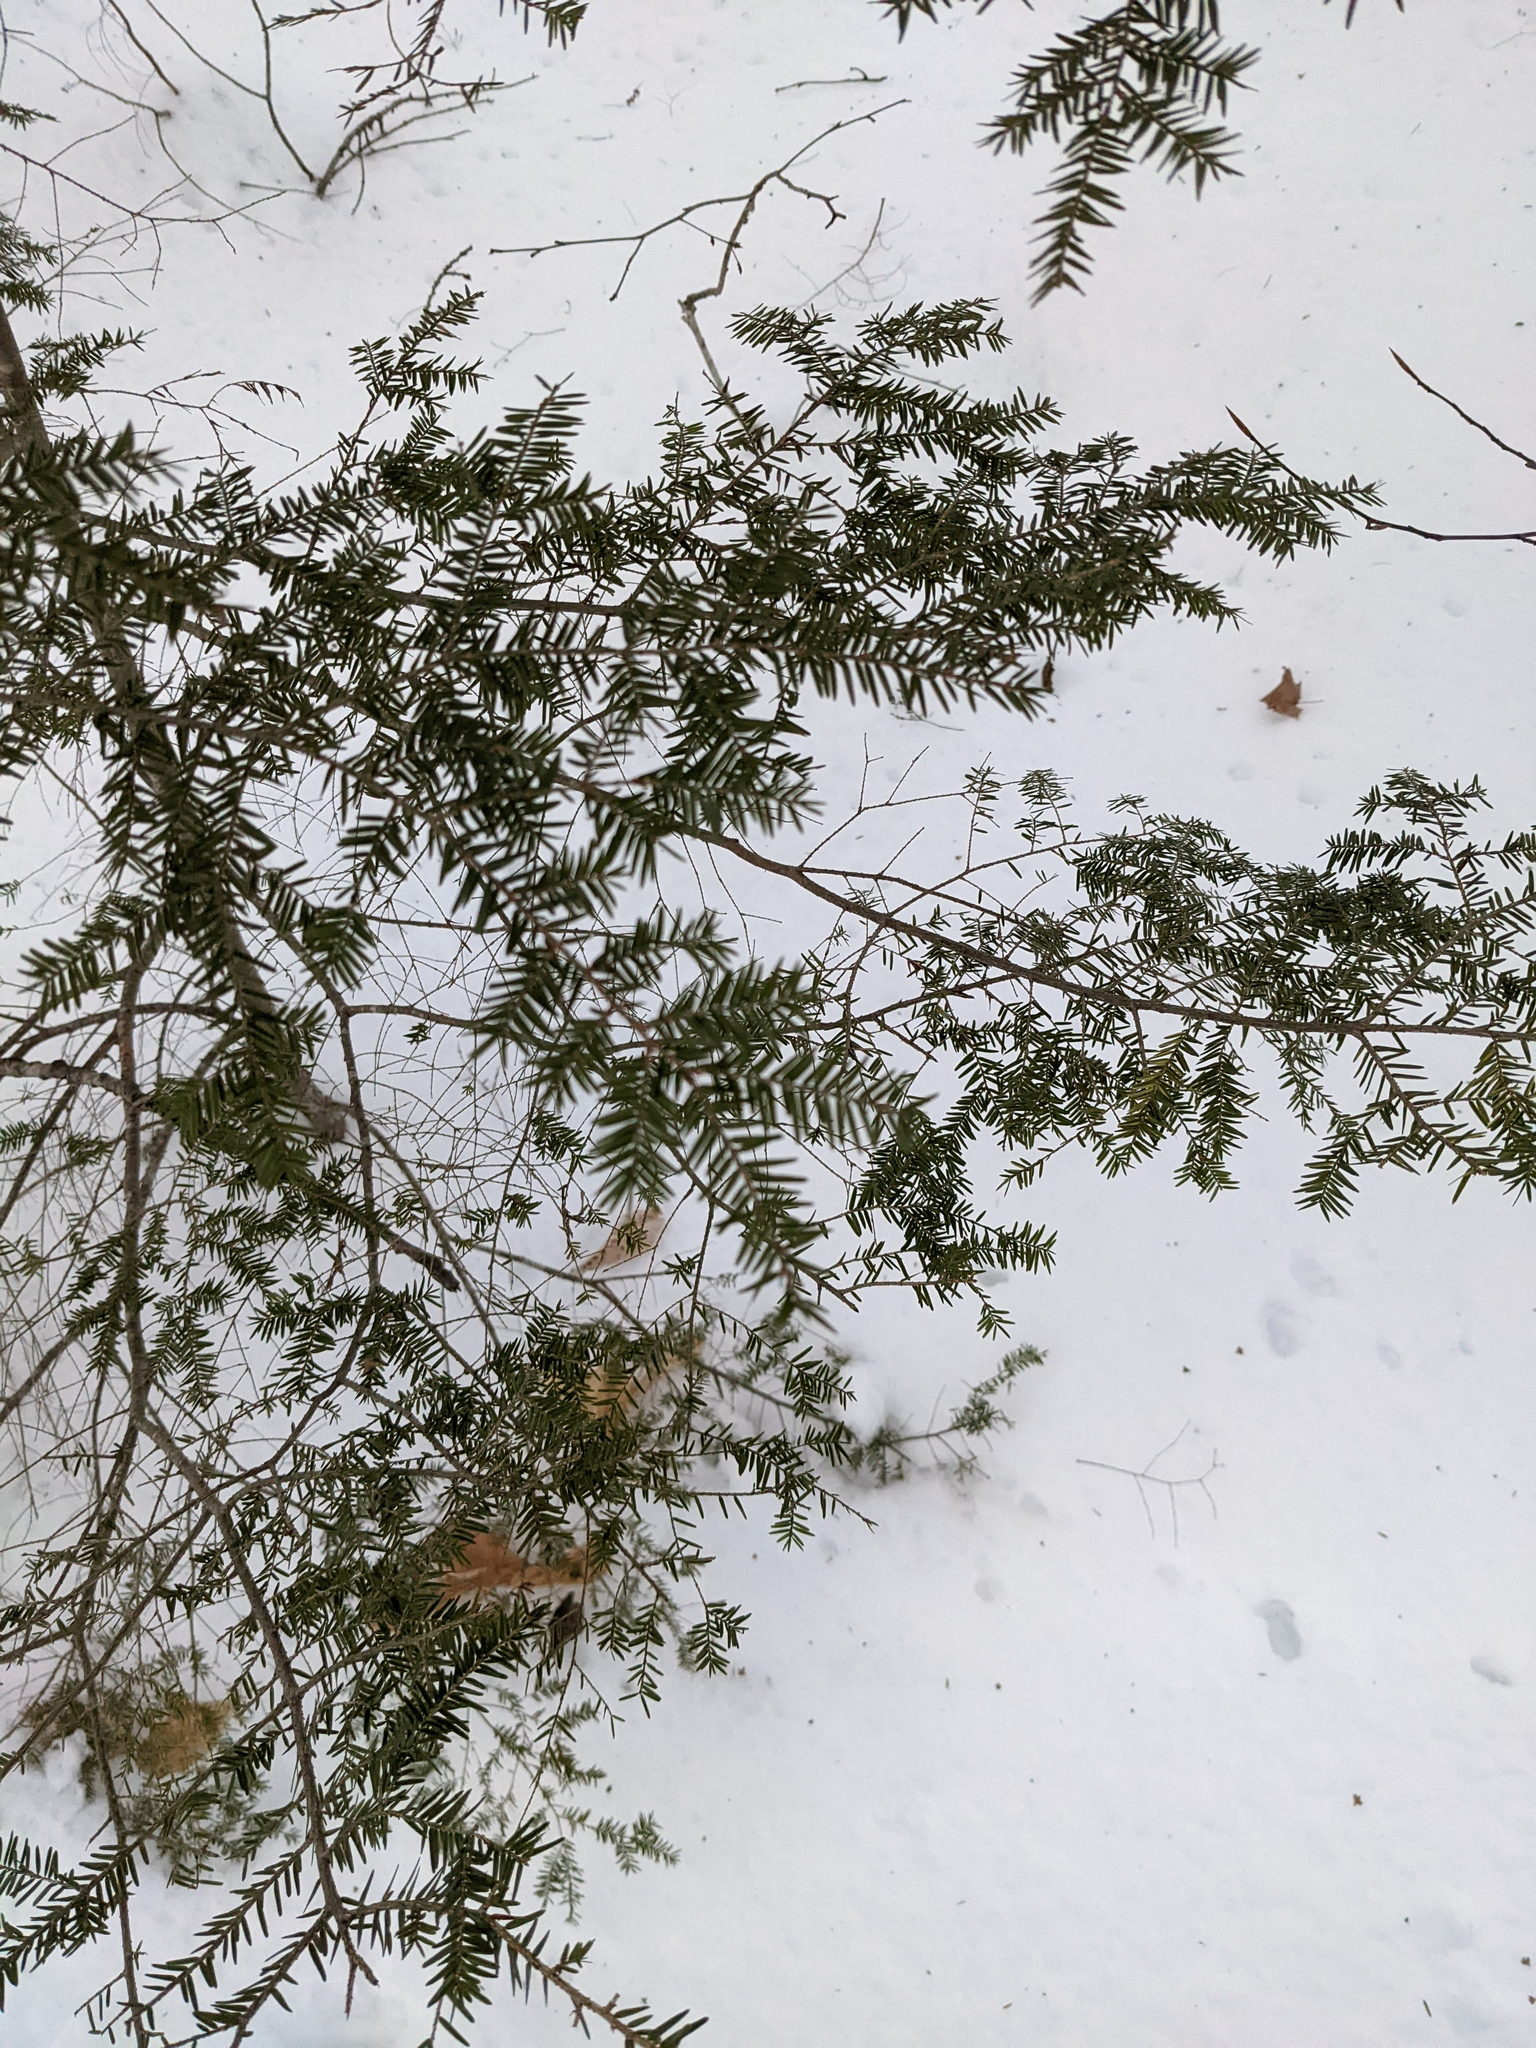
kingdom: Plantae
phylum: Tracheophyta
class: Pinopsida
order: Pinales
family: Pinaceae
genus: Tsuga
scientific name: Tsuga canadensis
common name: Eastern hemlock
